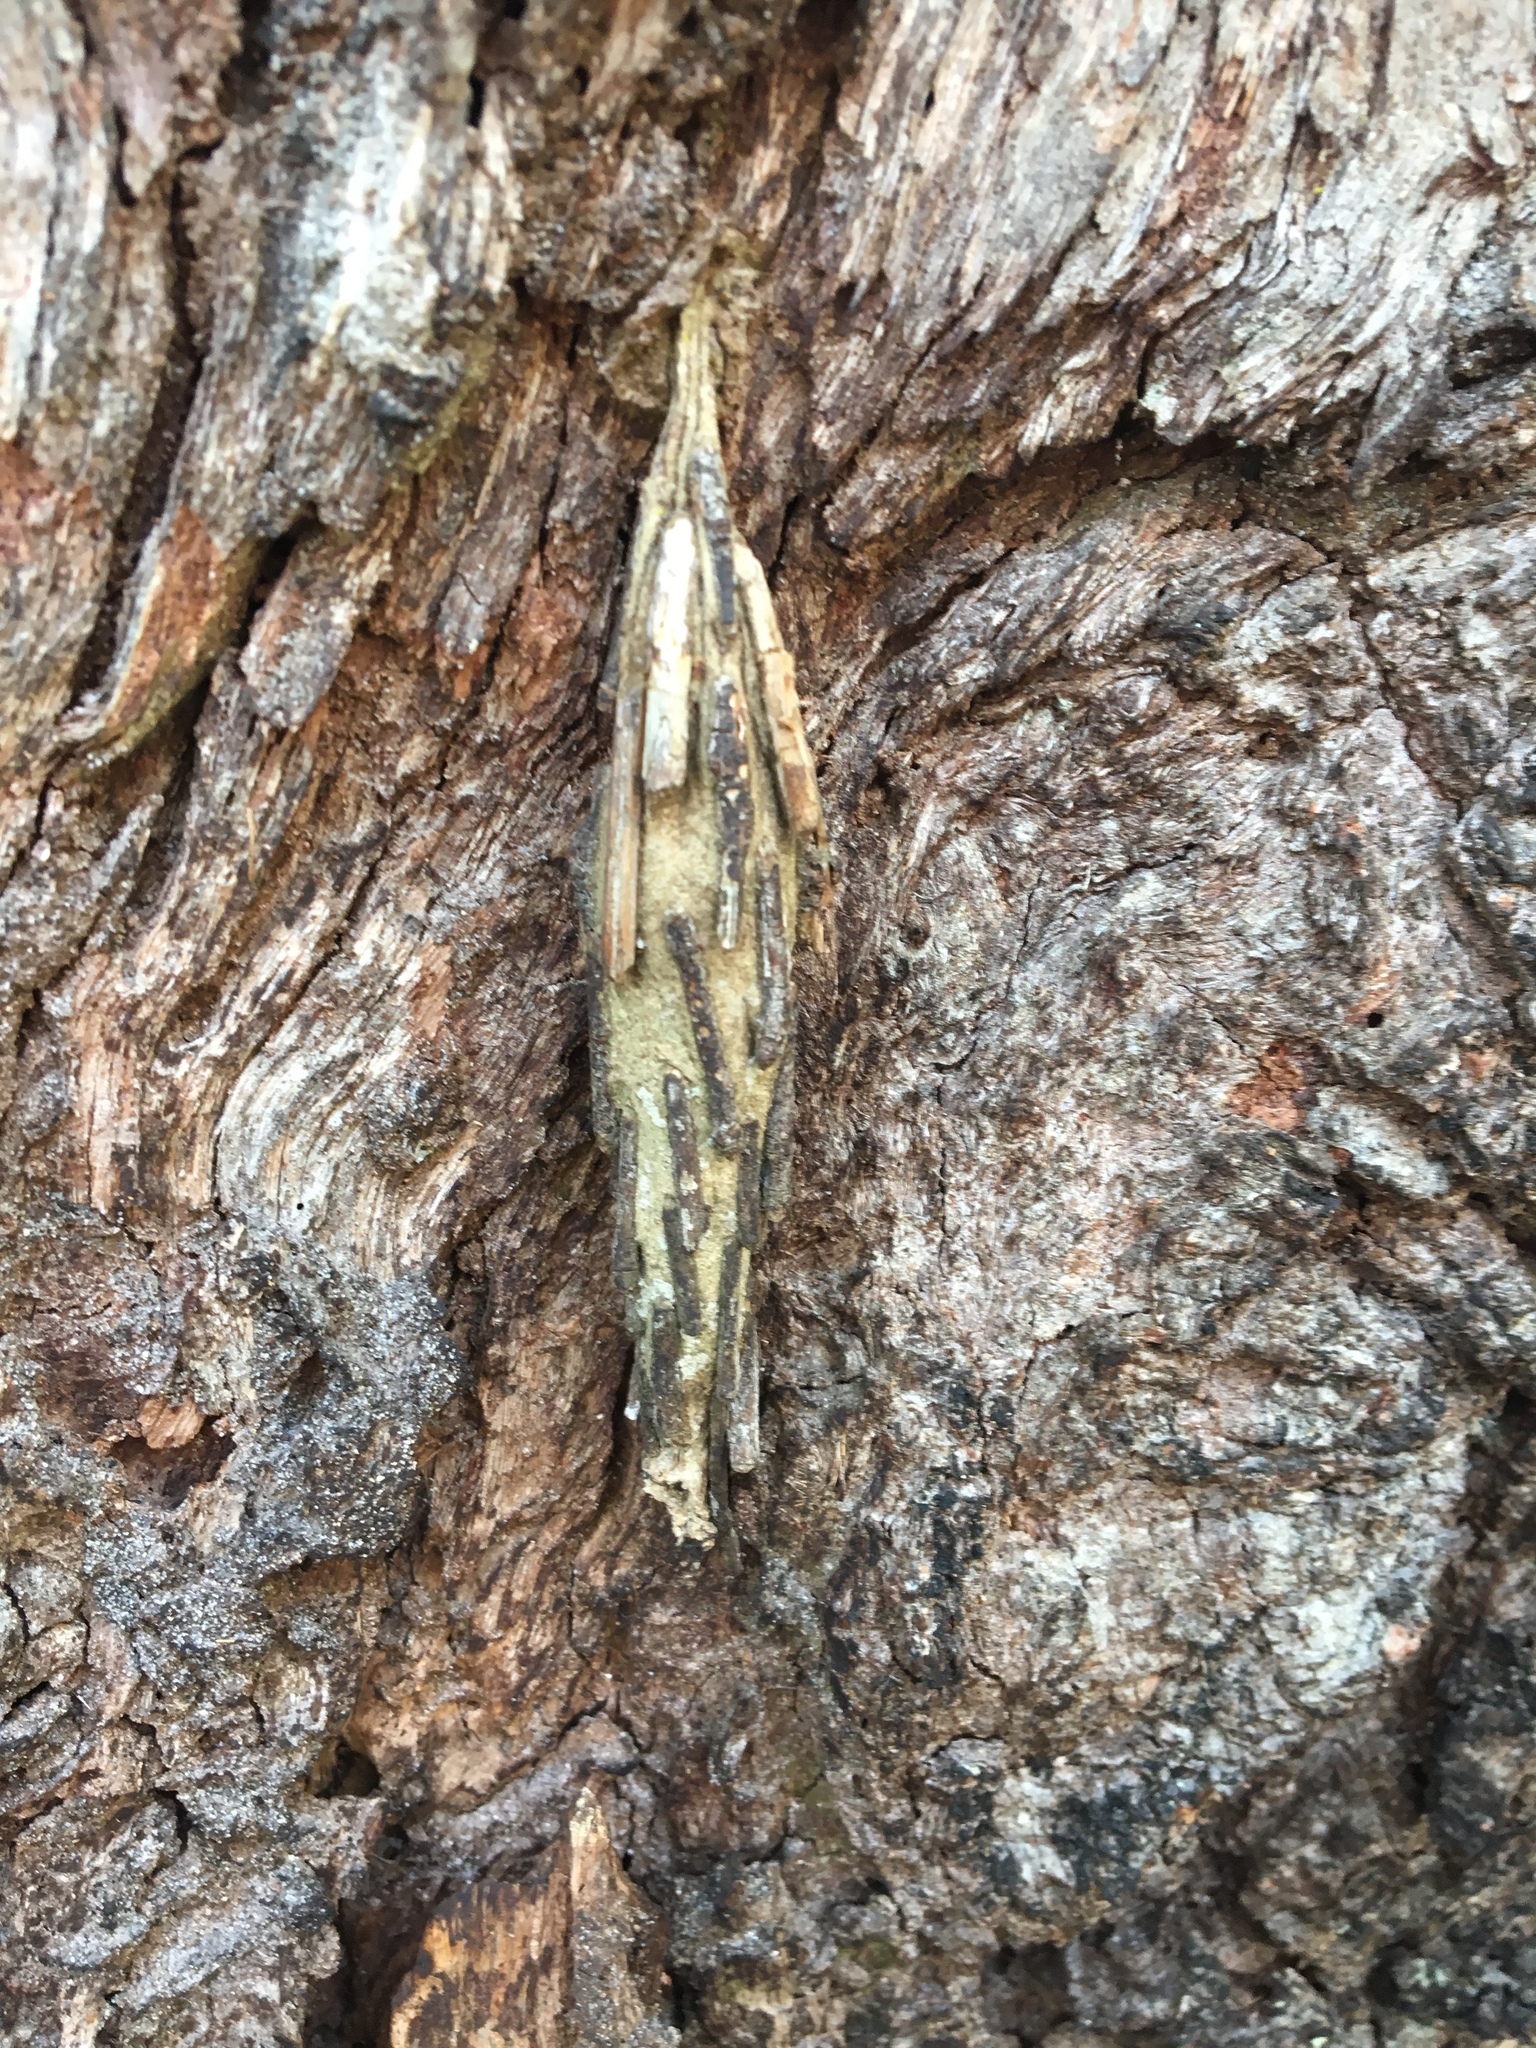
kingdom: Animalia
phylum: Arthropoda
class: Insecta
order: Lepidoptera
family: Psychidae
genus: Metura
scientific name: Metura elongatus
